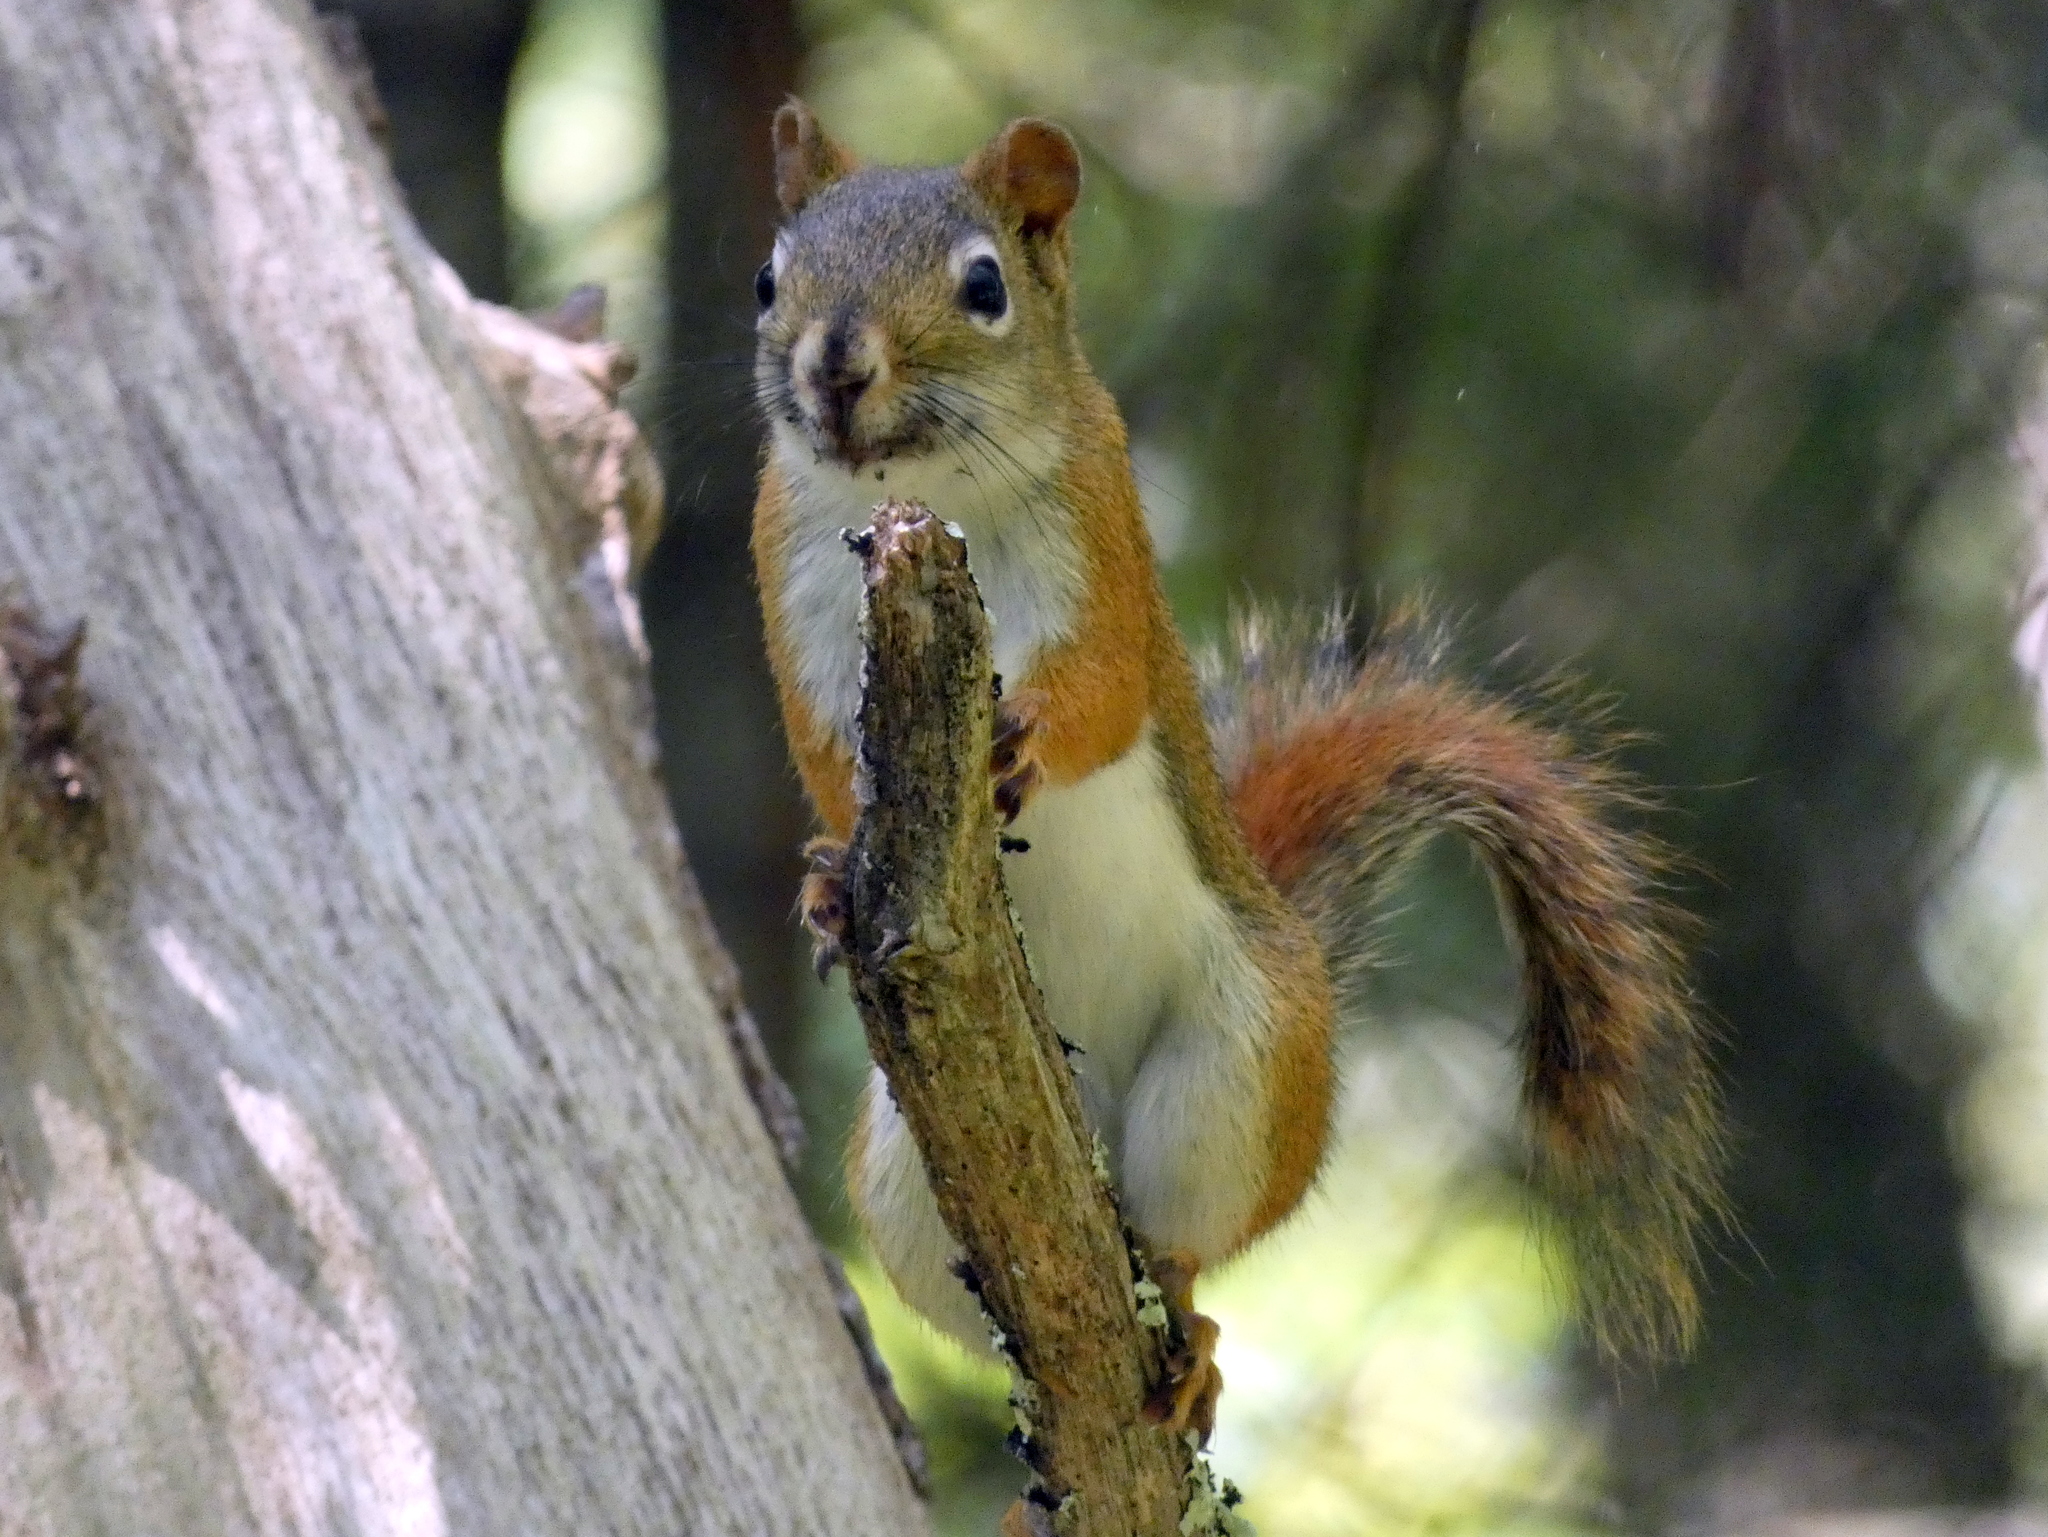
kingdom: Animalia
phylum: Chordata
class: Mammalia
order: Rodentia
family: Sciuridae
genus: Tamiasciurus
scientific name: Tamiasciurus hudsonicus
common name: Red squirrel
